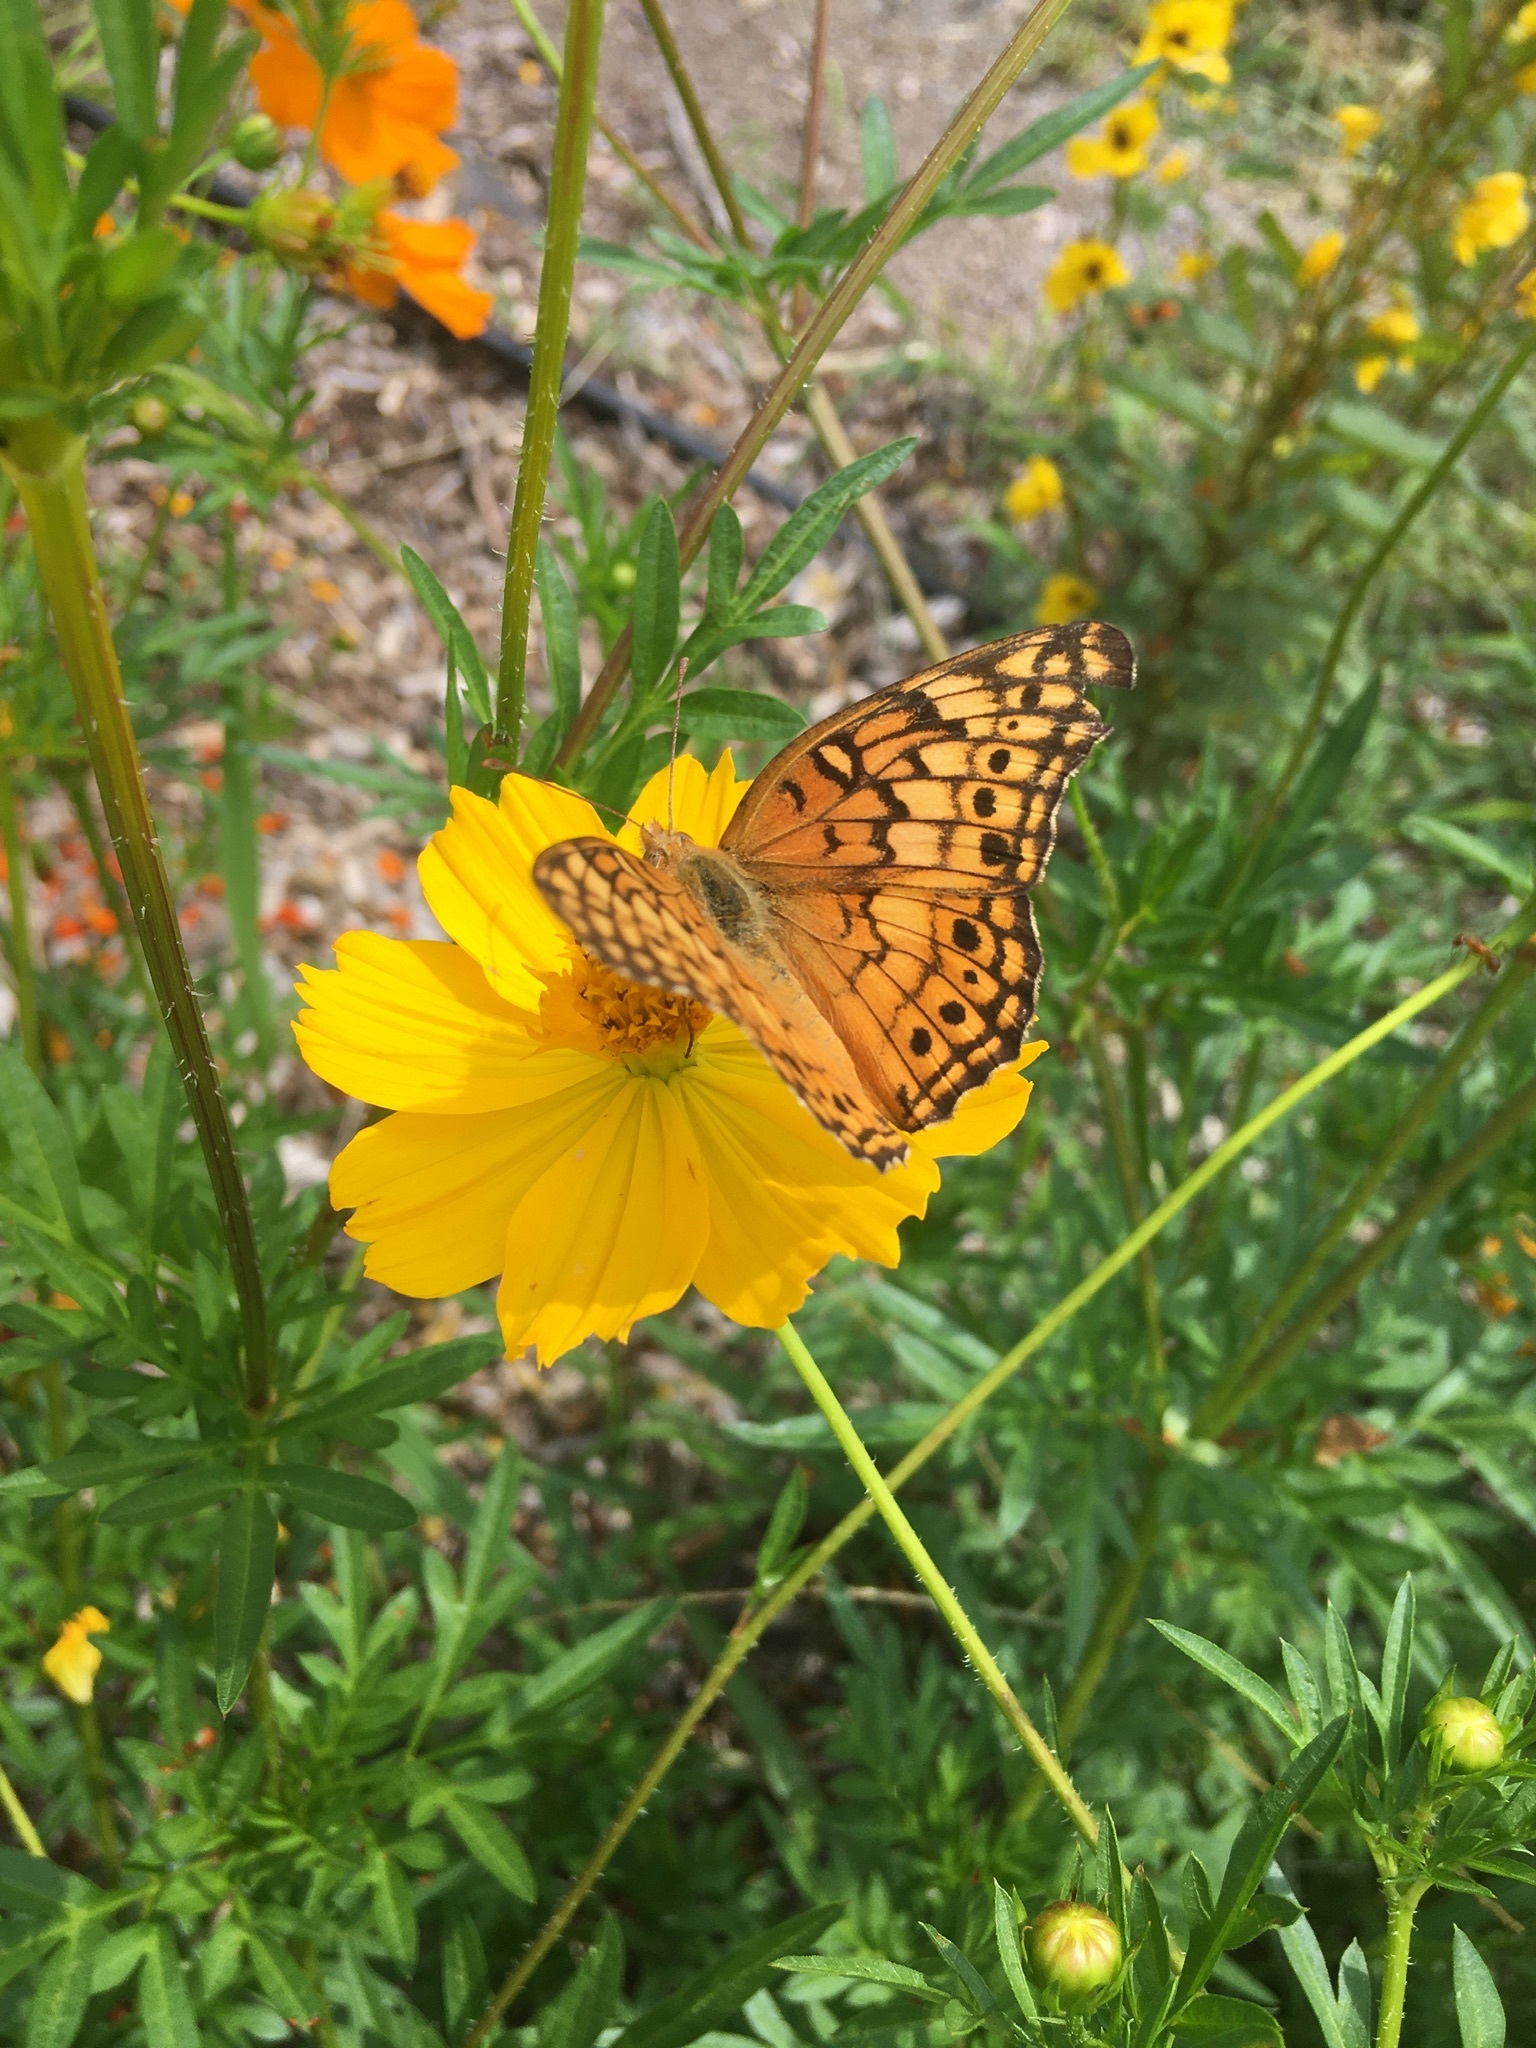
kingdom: Animalia
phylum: Arthropoda
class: Insecta
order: Lepidoptera
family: Nymphalidae
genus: Euptoieta
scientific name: Euptoieta claudia
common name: Variegated fritillary
